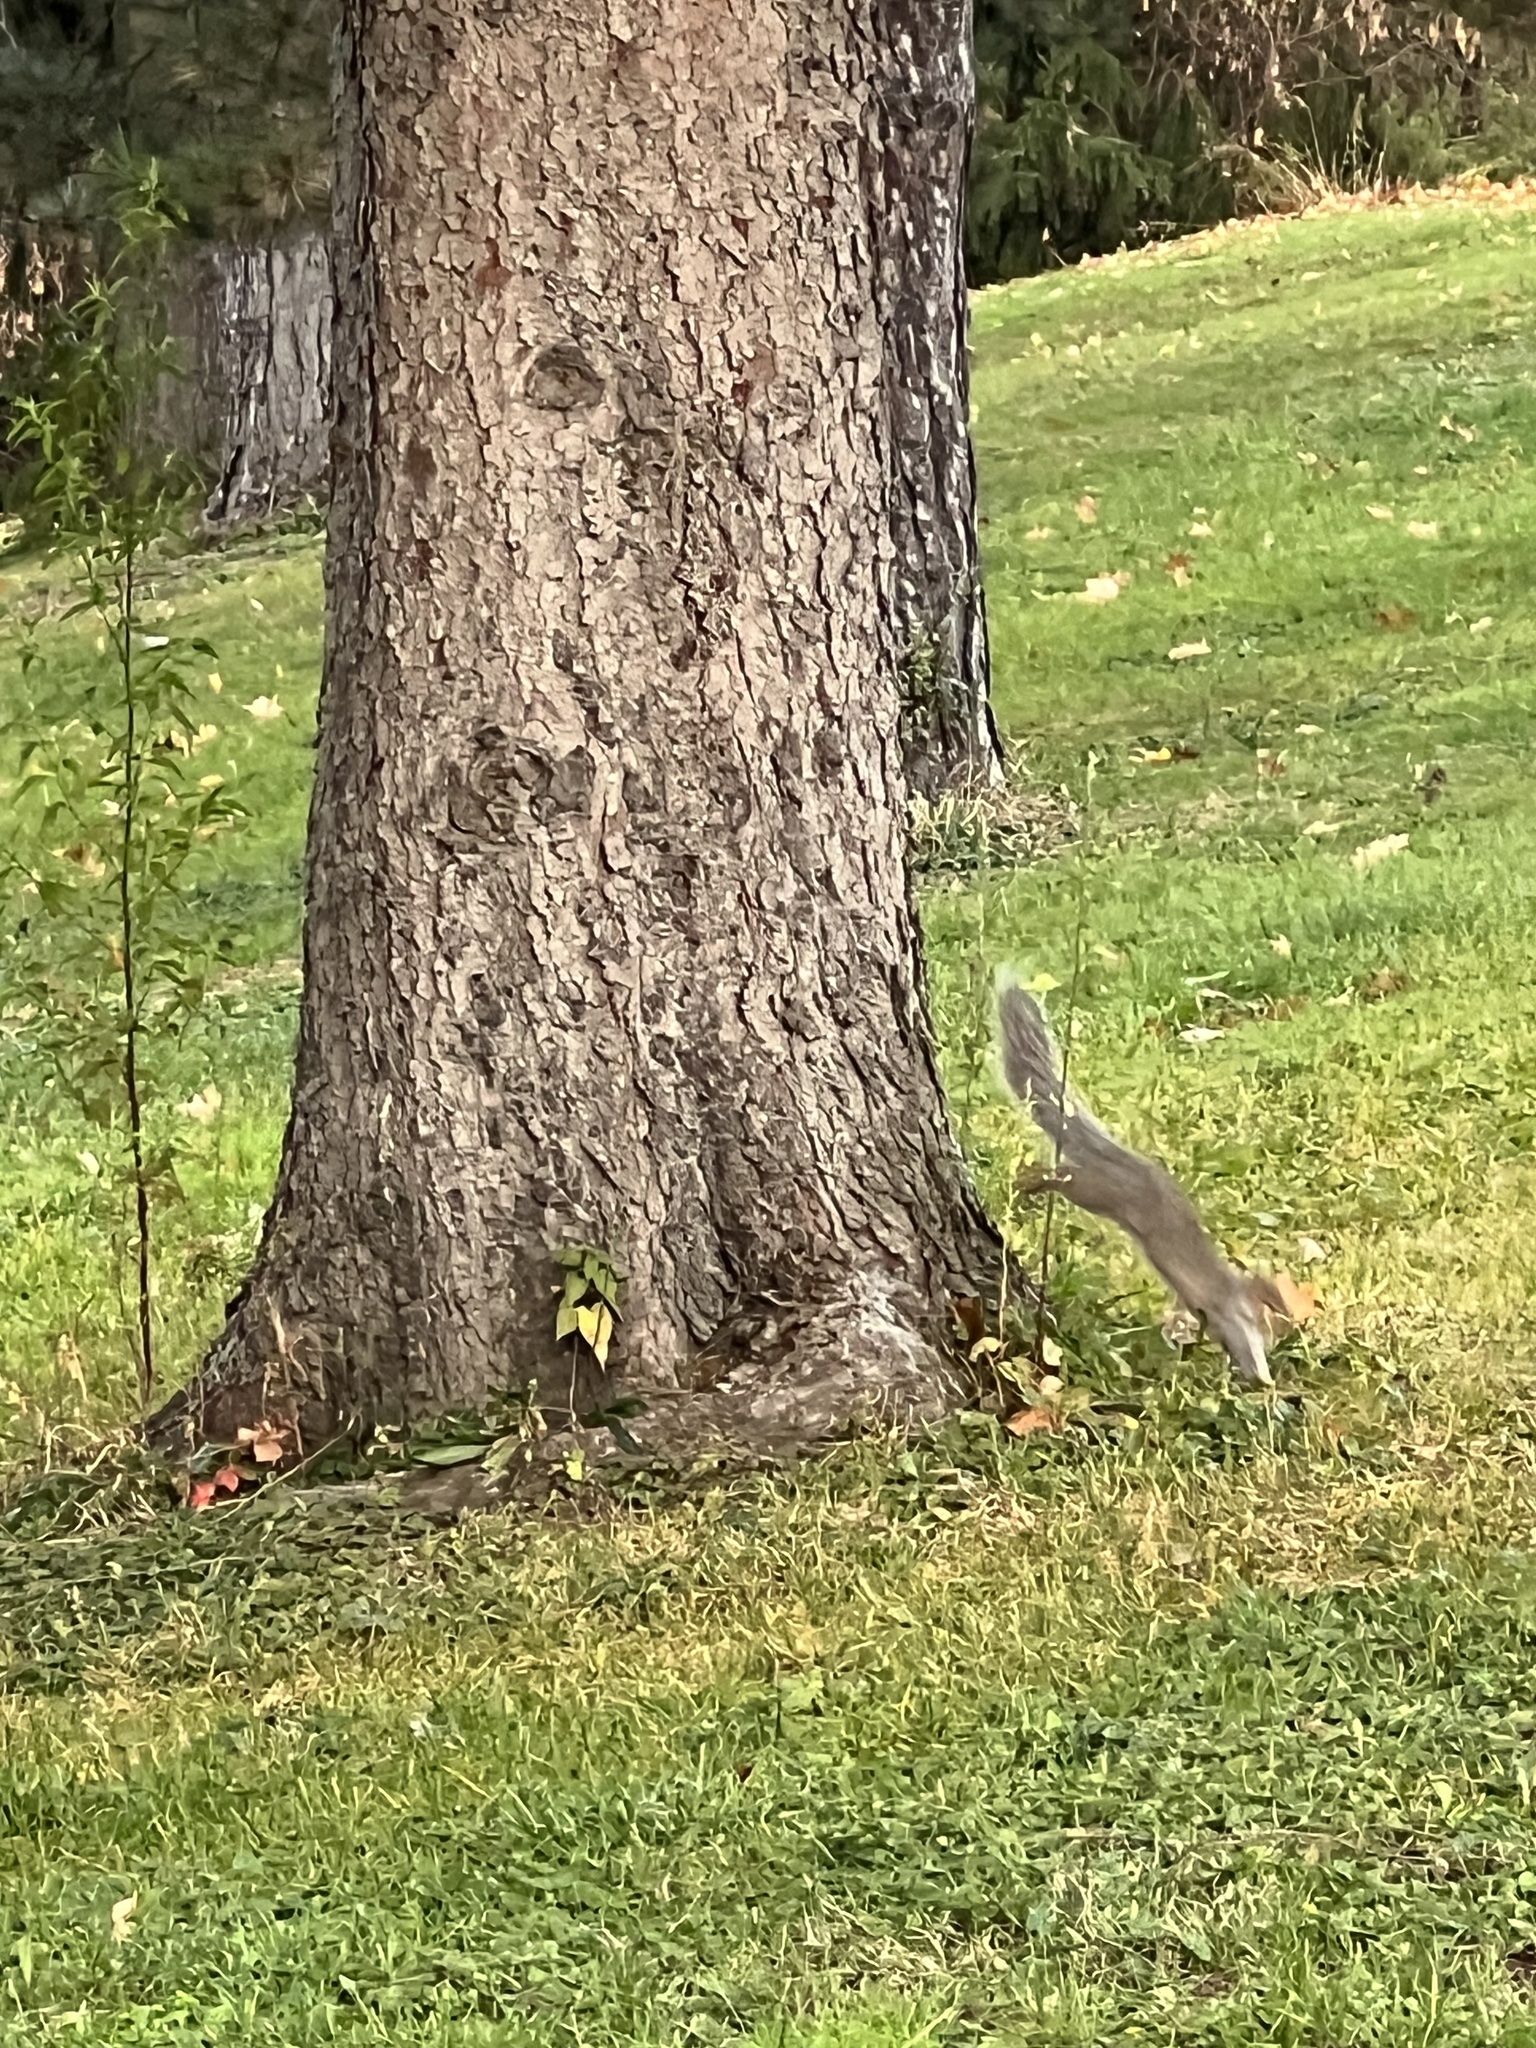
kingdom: Animalia
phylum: Chordata
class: Mammalia
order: Rodentia
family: Sciuridae
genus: Sciurus
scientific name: Sciurus carolinensis
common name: Eastern gray squirrel
